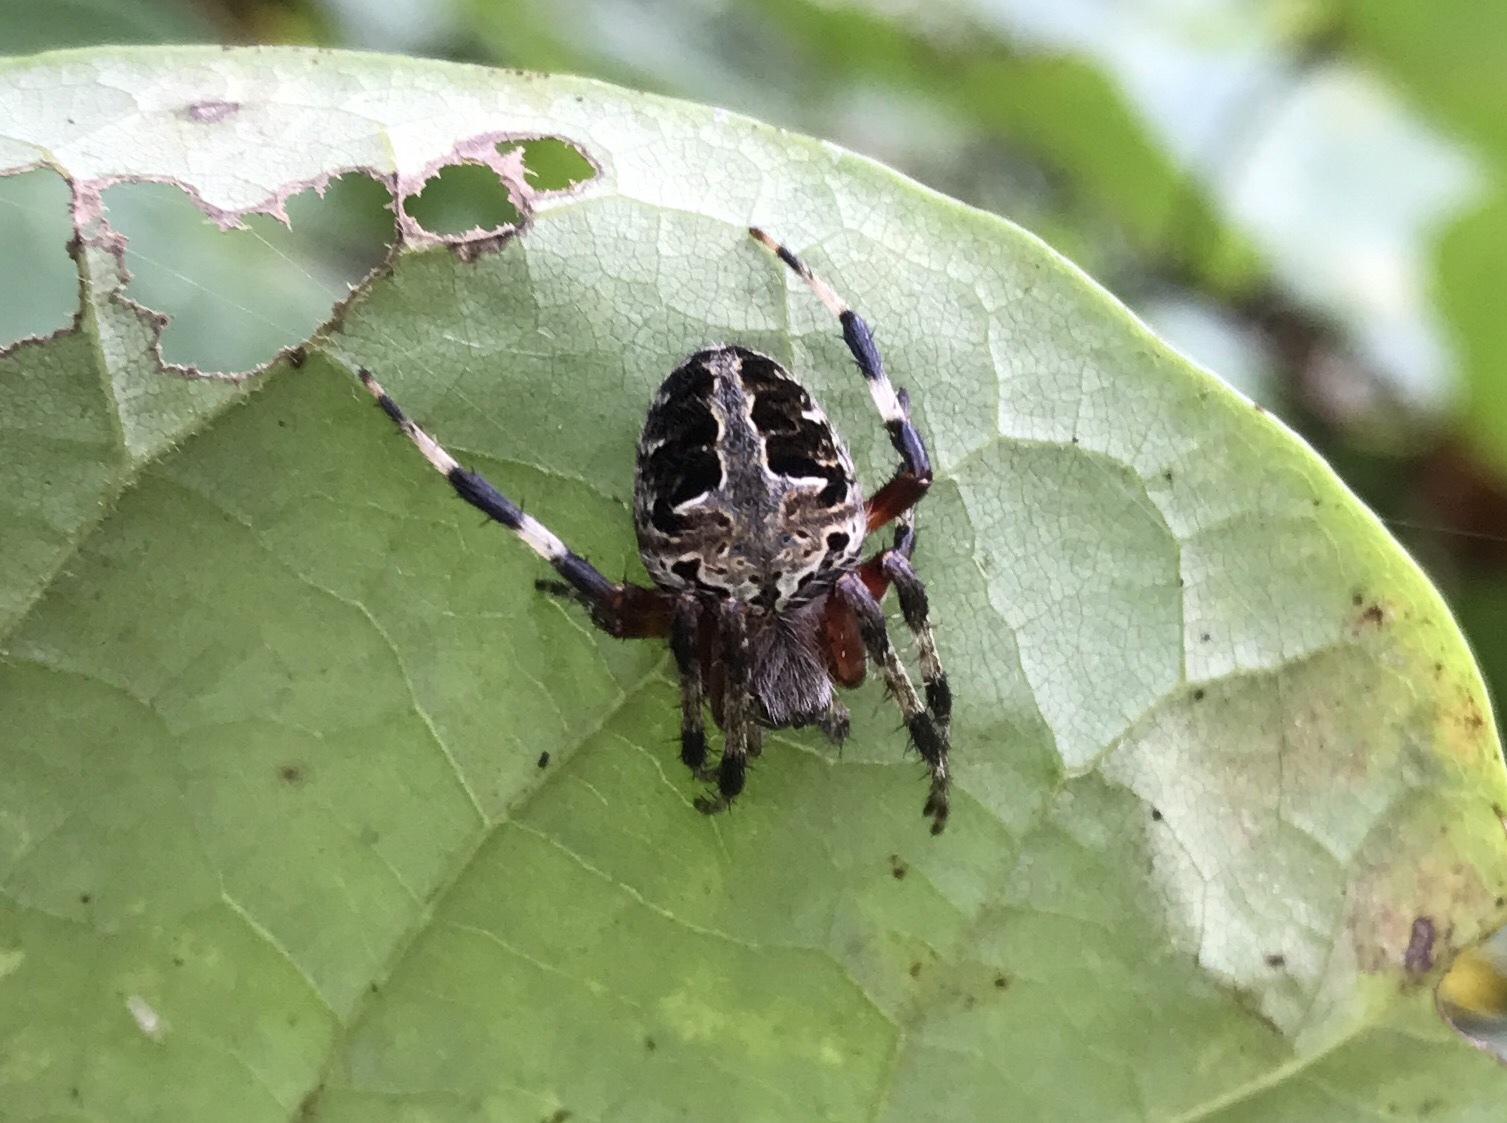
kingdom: Animalia
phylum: Arthropoda
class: Arachnida
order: Araneae
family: Araneidae
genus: Neoscona
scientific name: Neoscona domiciliorum
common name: Red-femured spotted orbweaver
